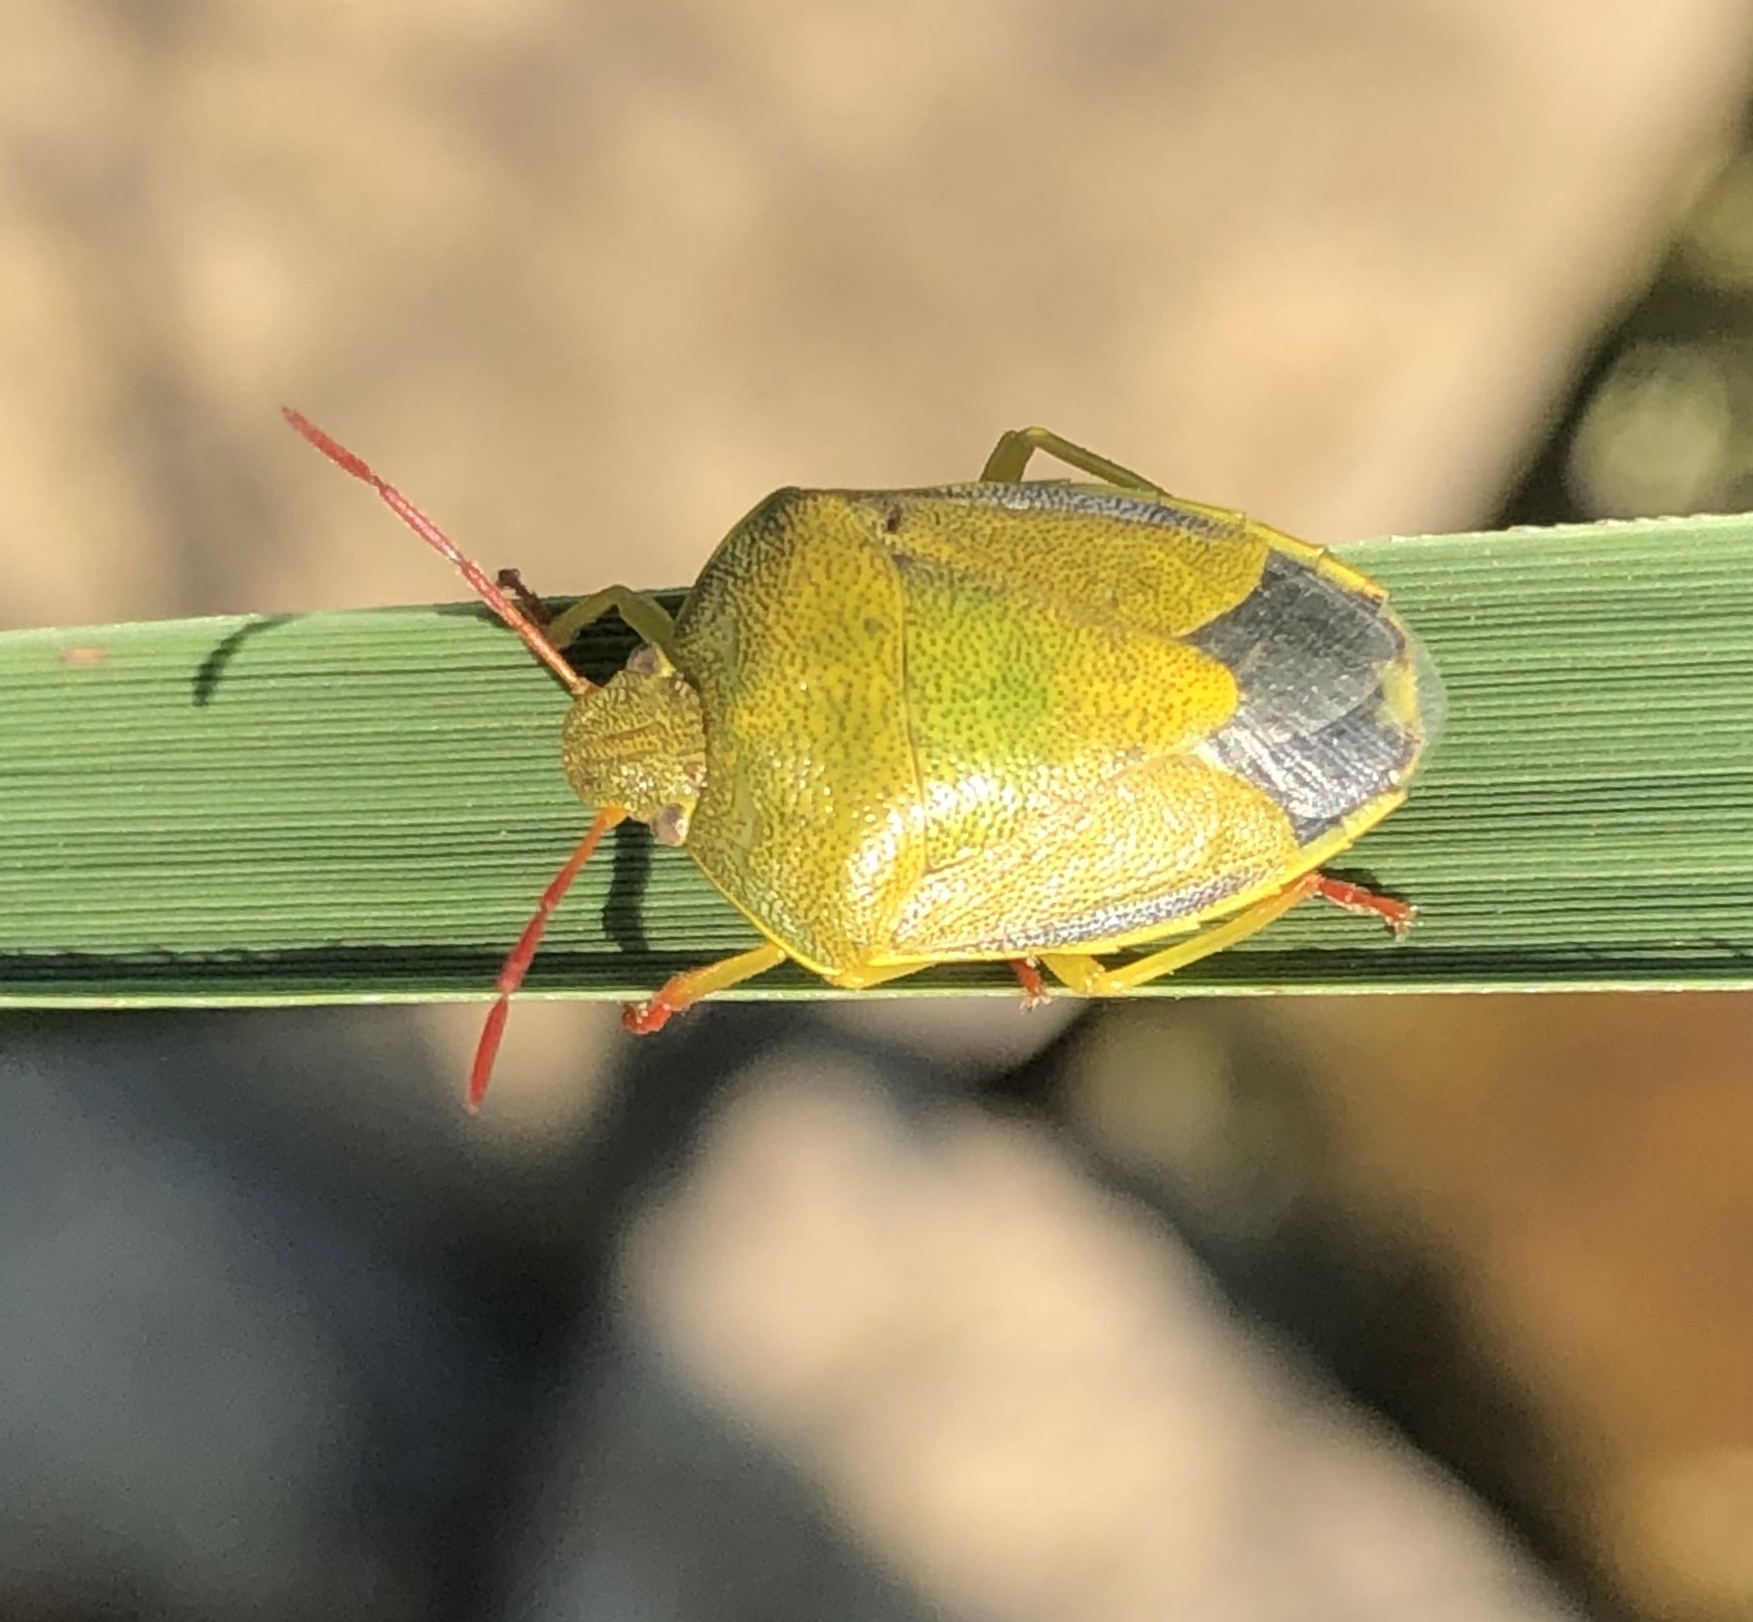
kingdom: Animalia
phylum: Arthropoda
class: Insecta
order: Hemiptera
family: Pentatomidae
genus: Piezodorus
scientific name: Piezodorus lituratus
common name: Stink bug
